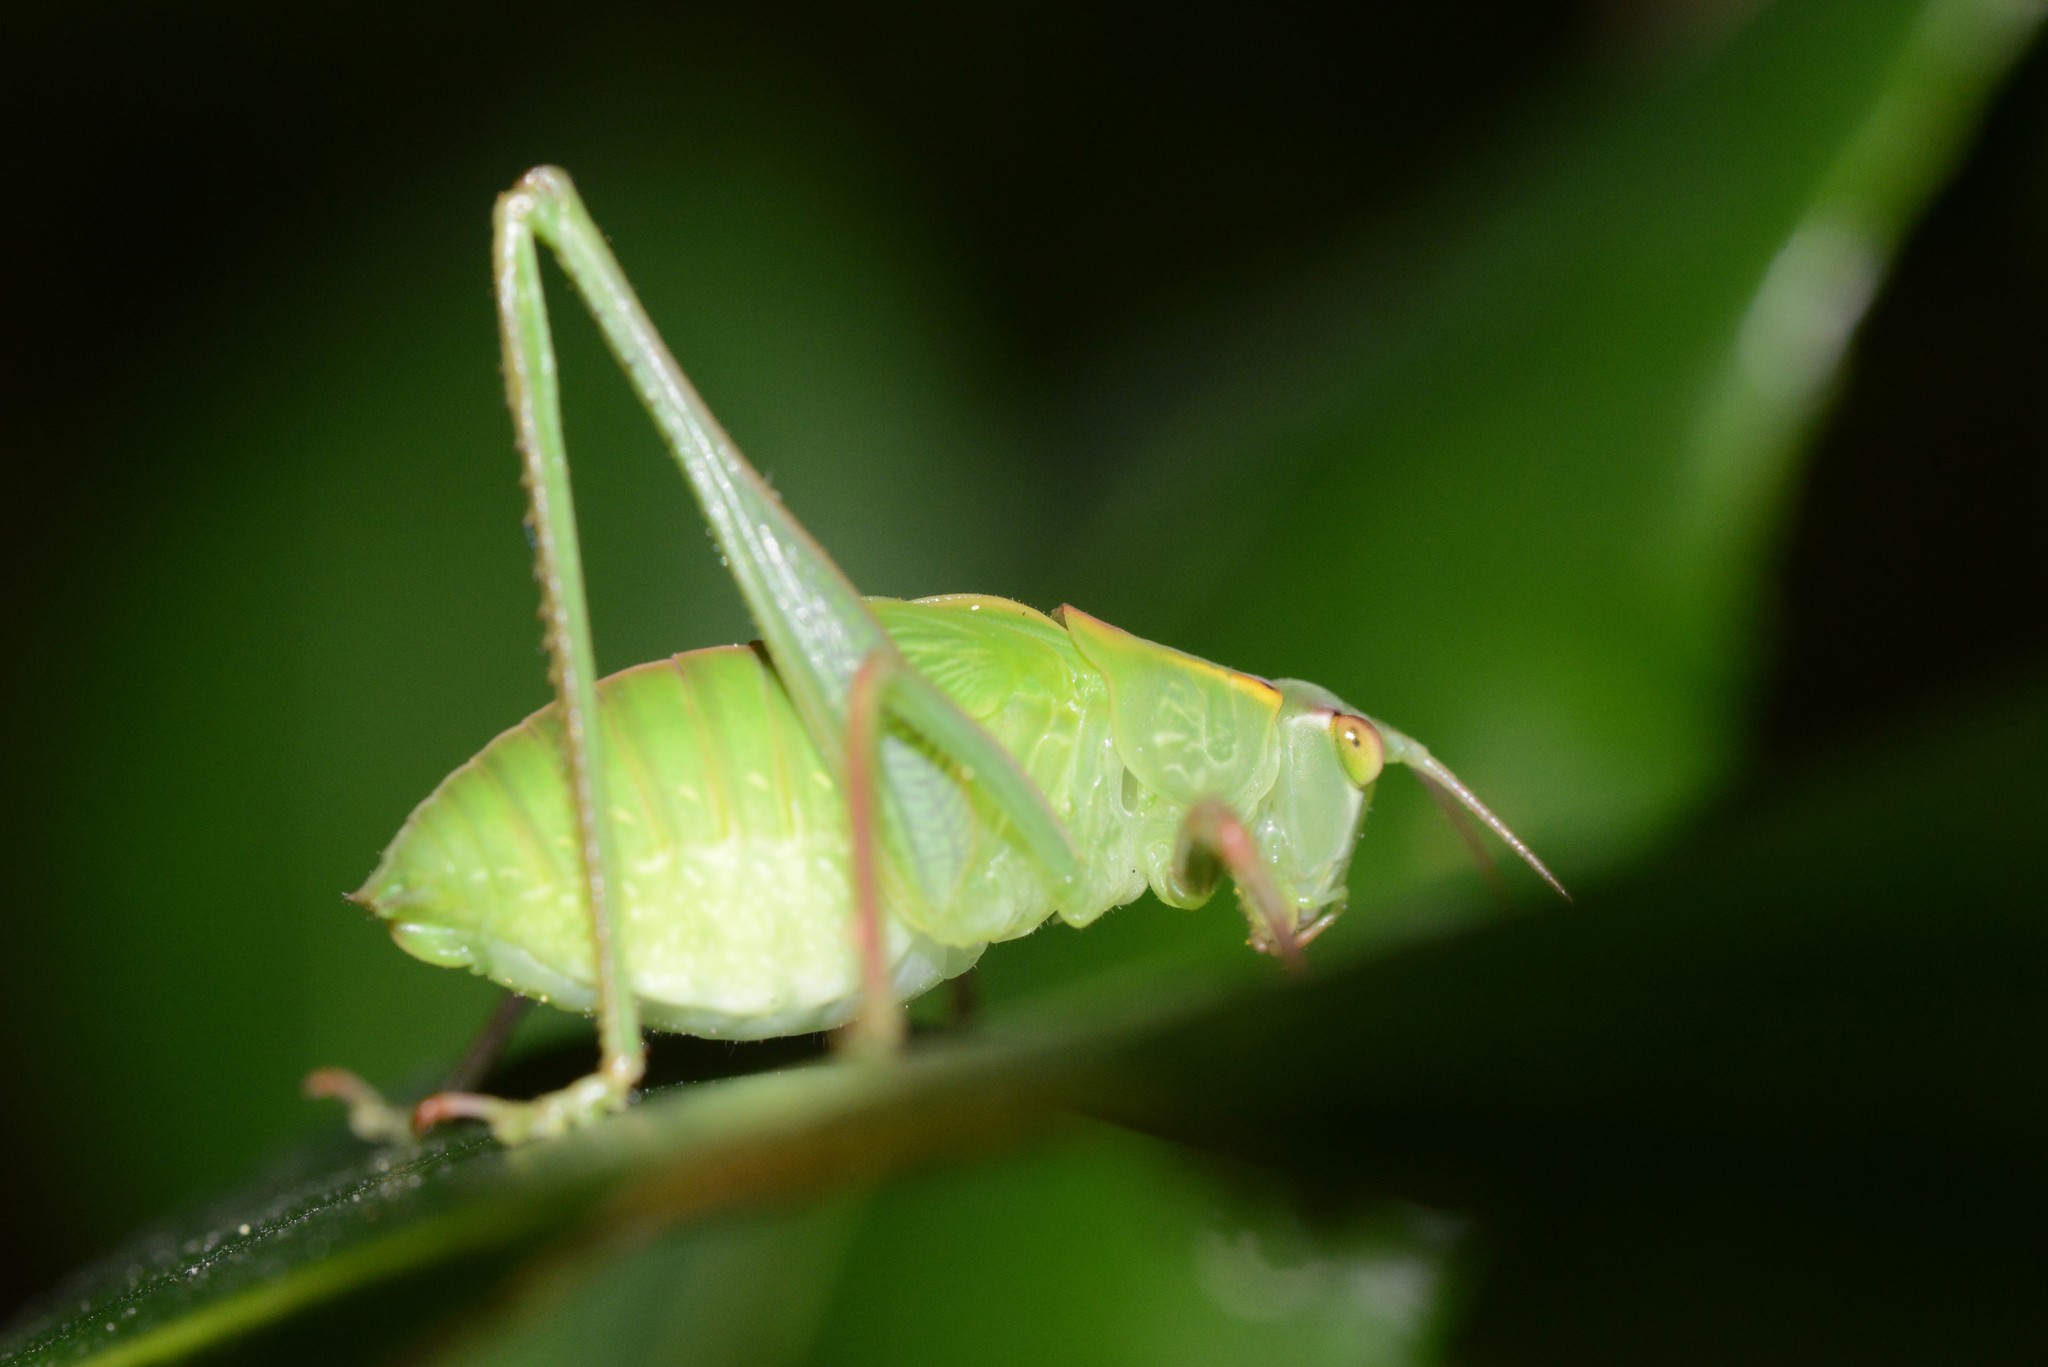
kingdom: Animalia
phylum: Arthropoda
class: Insecta
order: Orthoptera
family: Tettigoniidae
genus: Caedicia
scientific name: Caedicia simplex
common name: Common garden katydid
